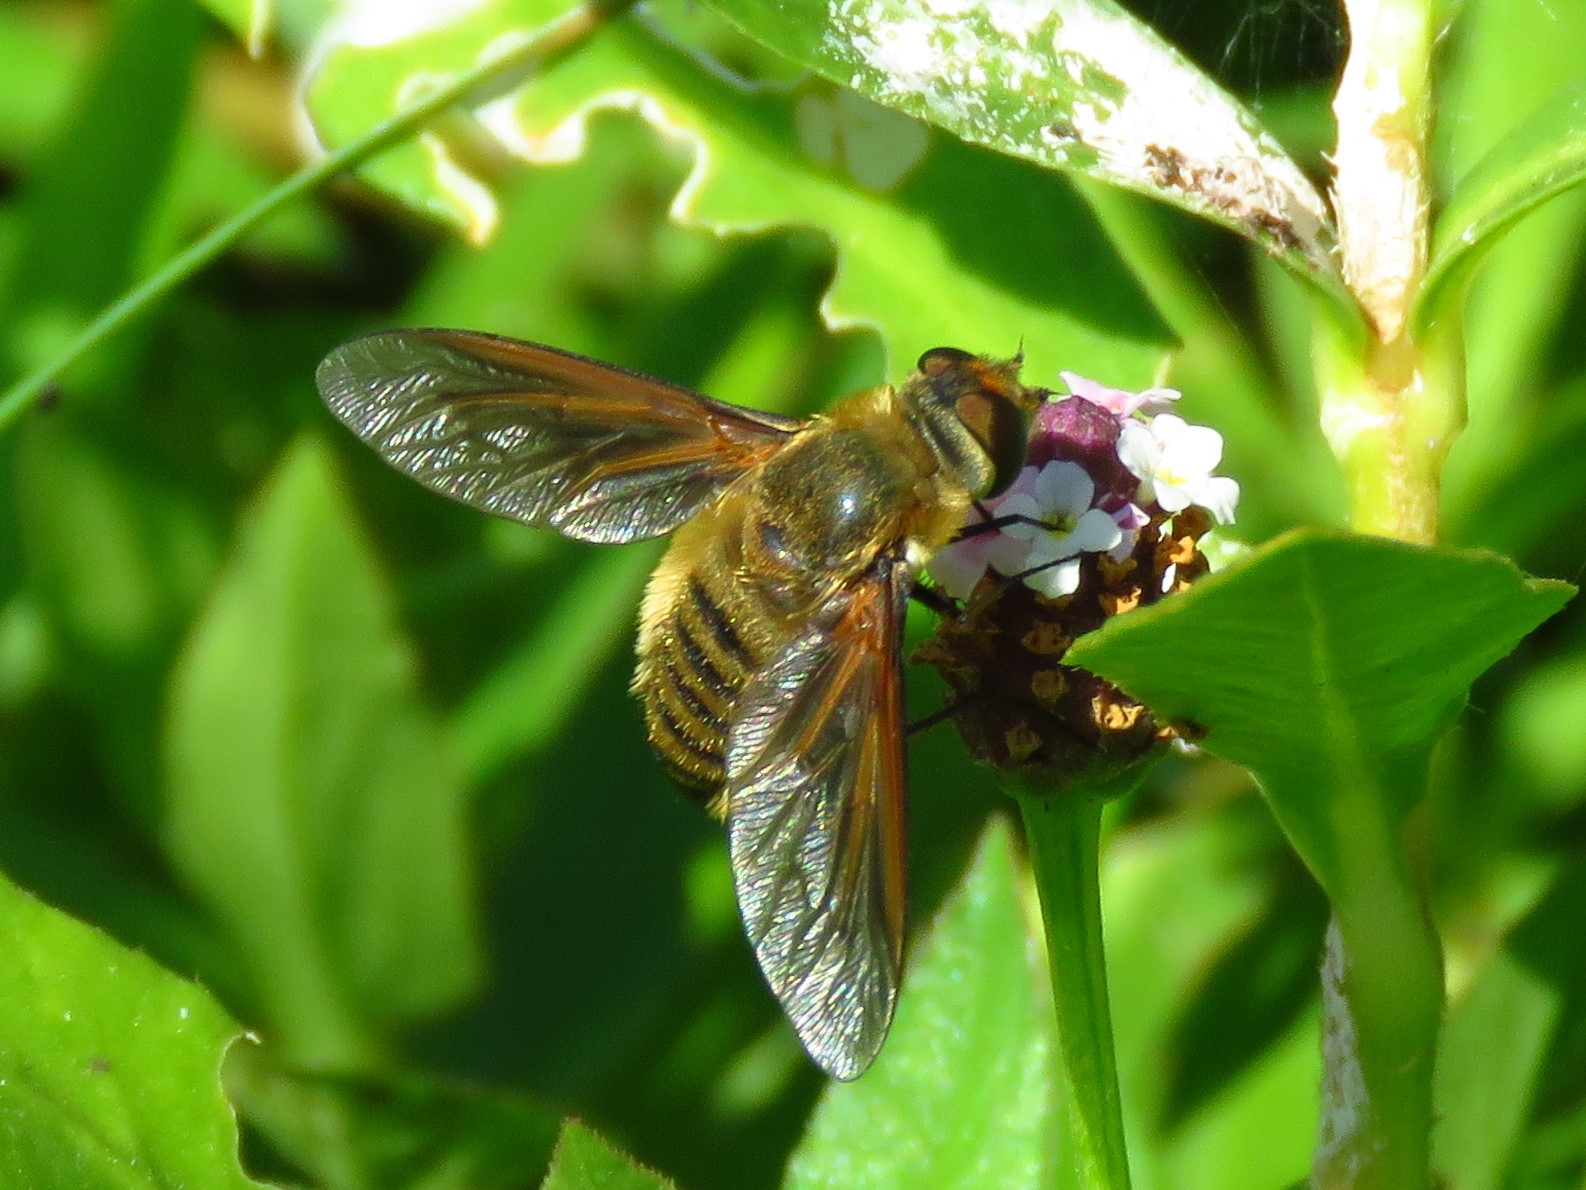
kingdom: Animalia
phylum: Arthropoda
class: Insecta
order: Diptera
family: Bombyliidae
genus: Poecilanthrax
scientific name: Poecilanthrax lucifer
